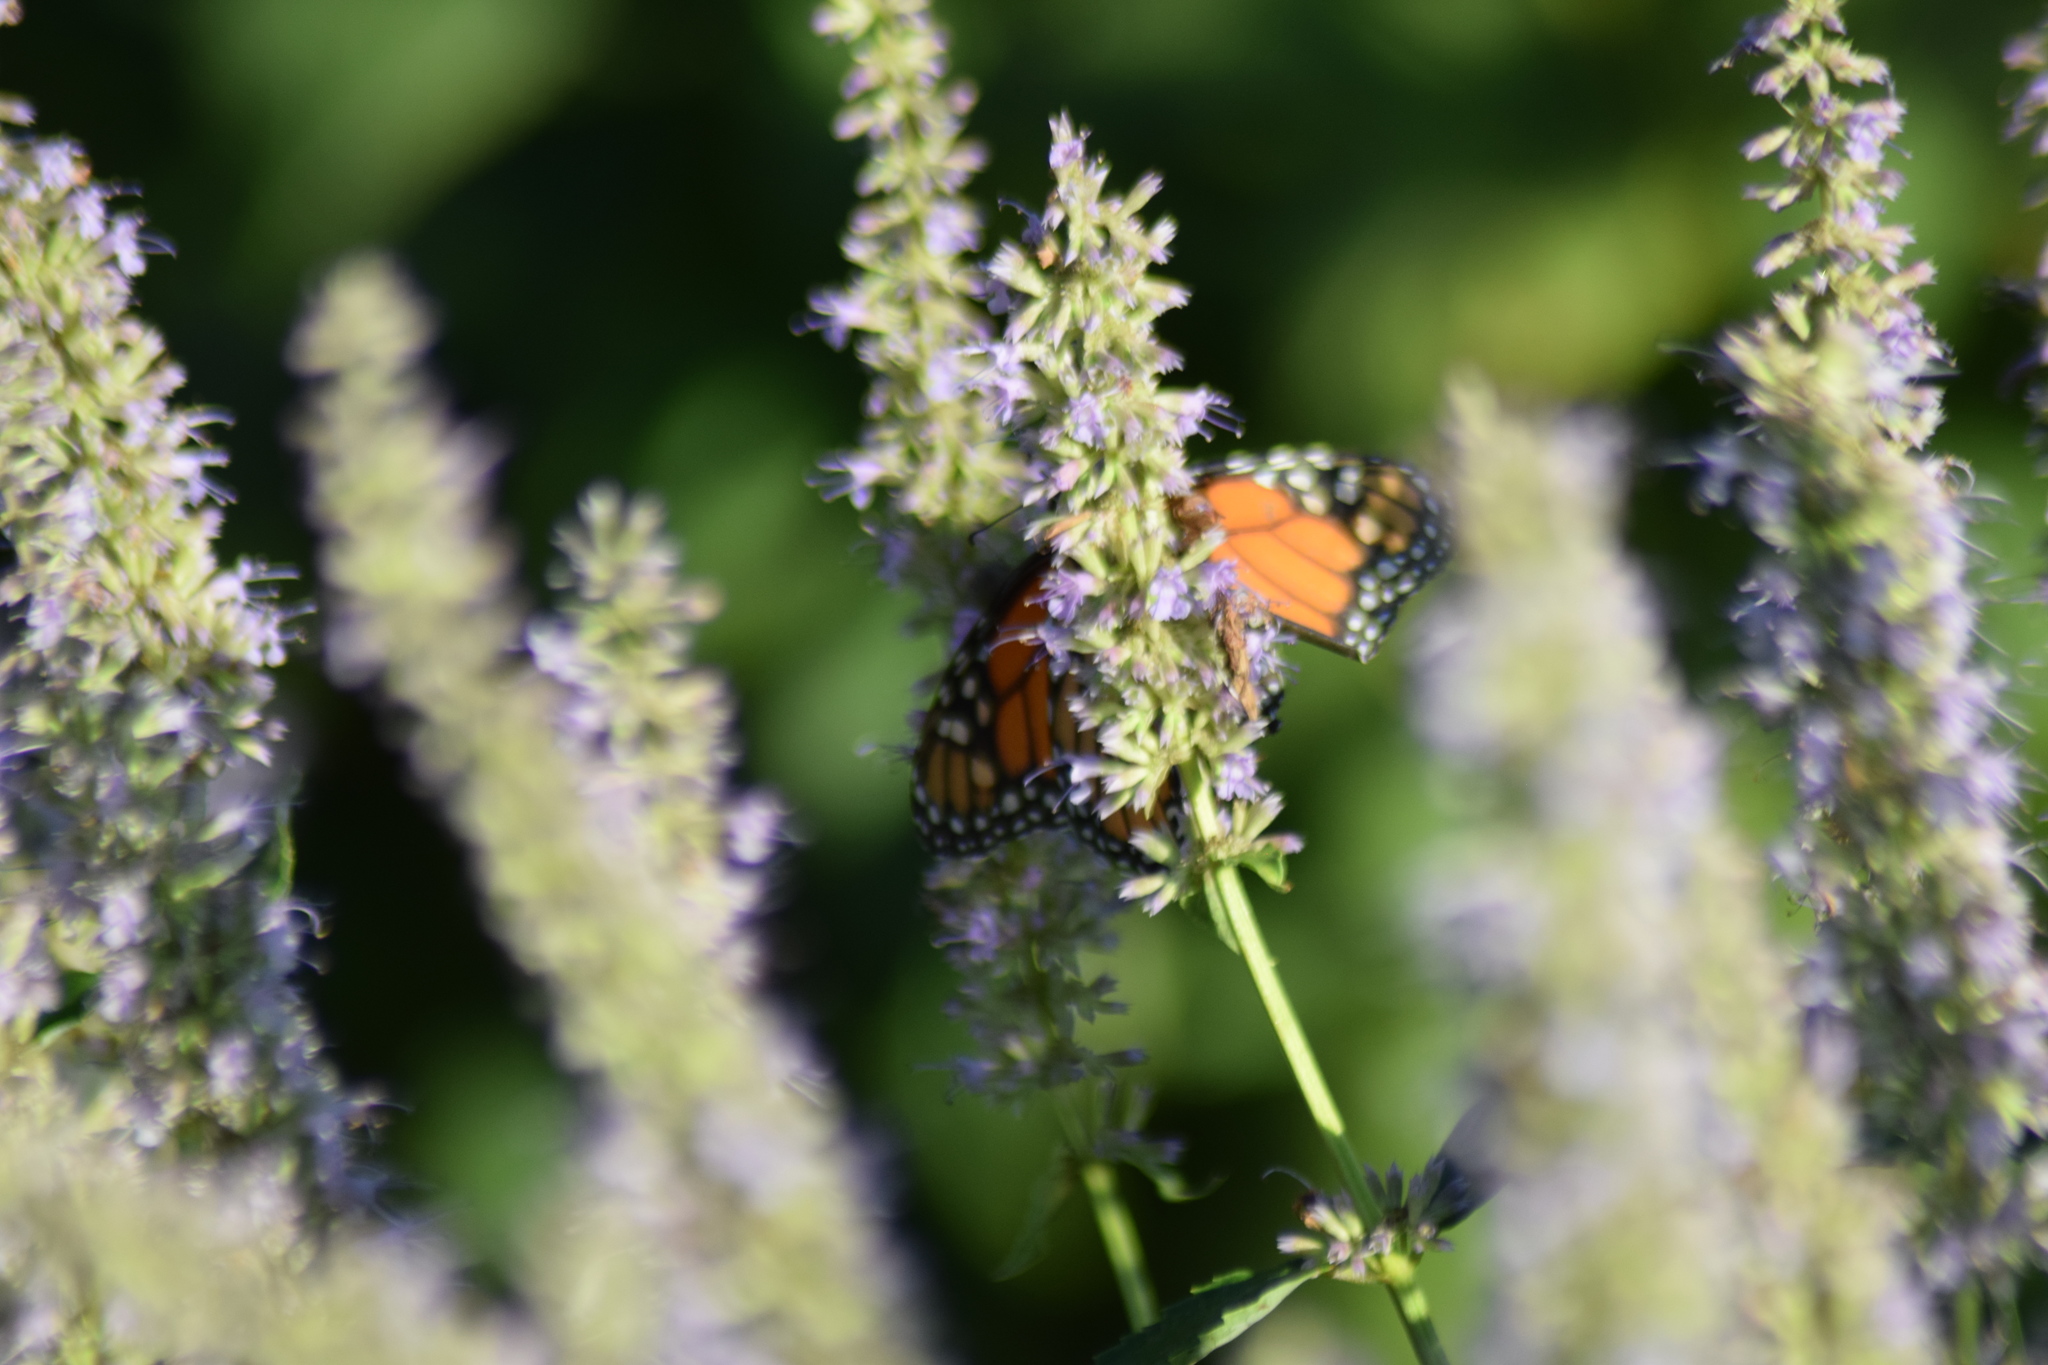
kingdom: Animalia
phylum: Arthropoda
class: Insecta
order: Lepidoptera
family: Nymphalidae
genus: Danaus
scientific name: Danaus plexippus
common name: Monarch
